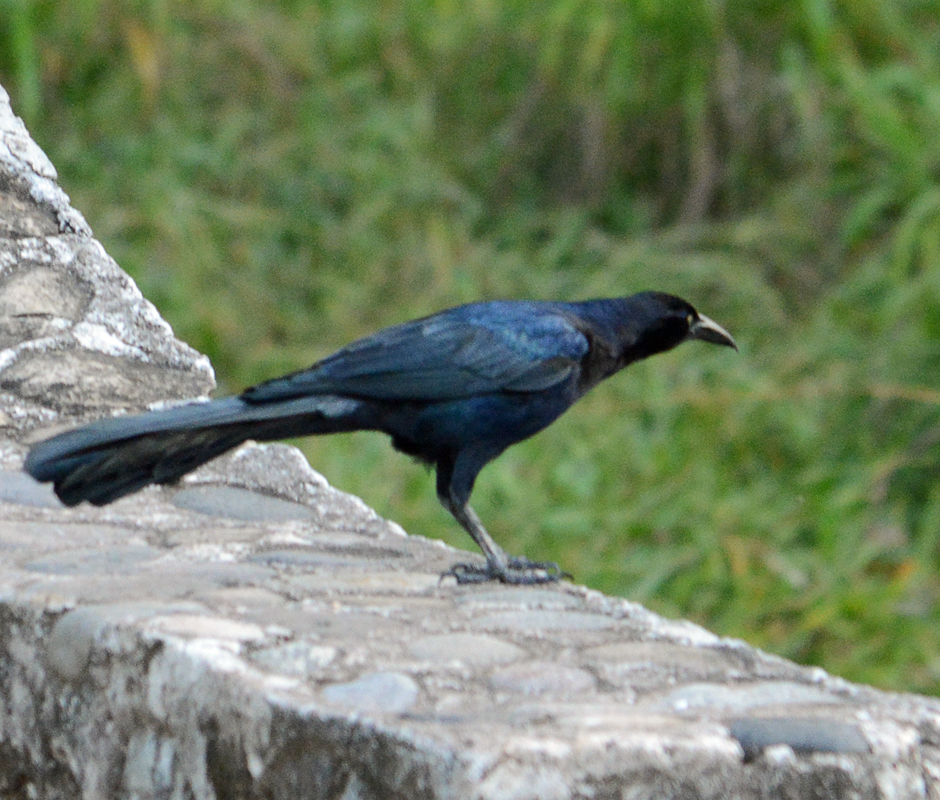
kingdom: Animalia
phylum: Chordata
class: Aves
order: Passeriformes
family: Icteridae
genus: Quiscalus
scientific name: Quiscalus mexicanus
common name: Great-tailed grackle
